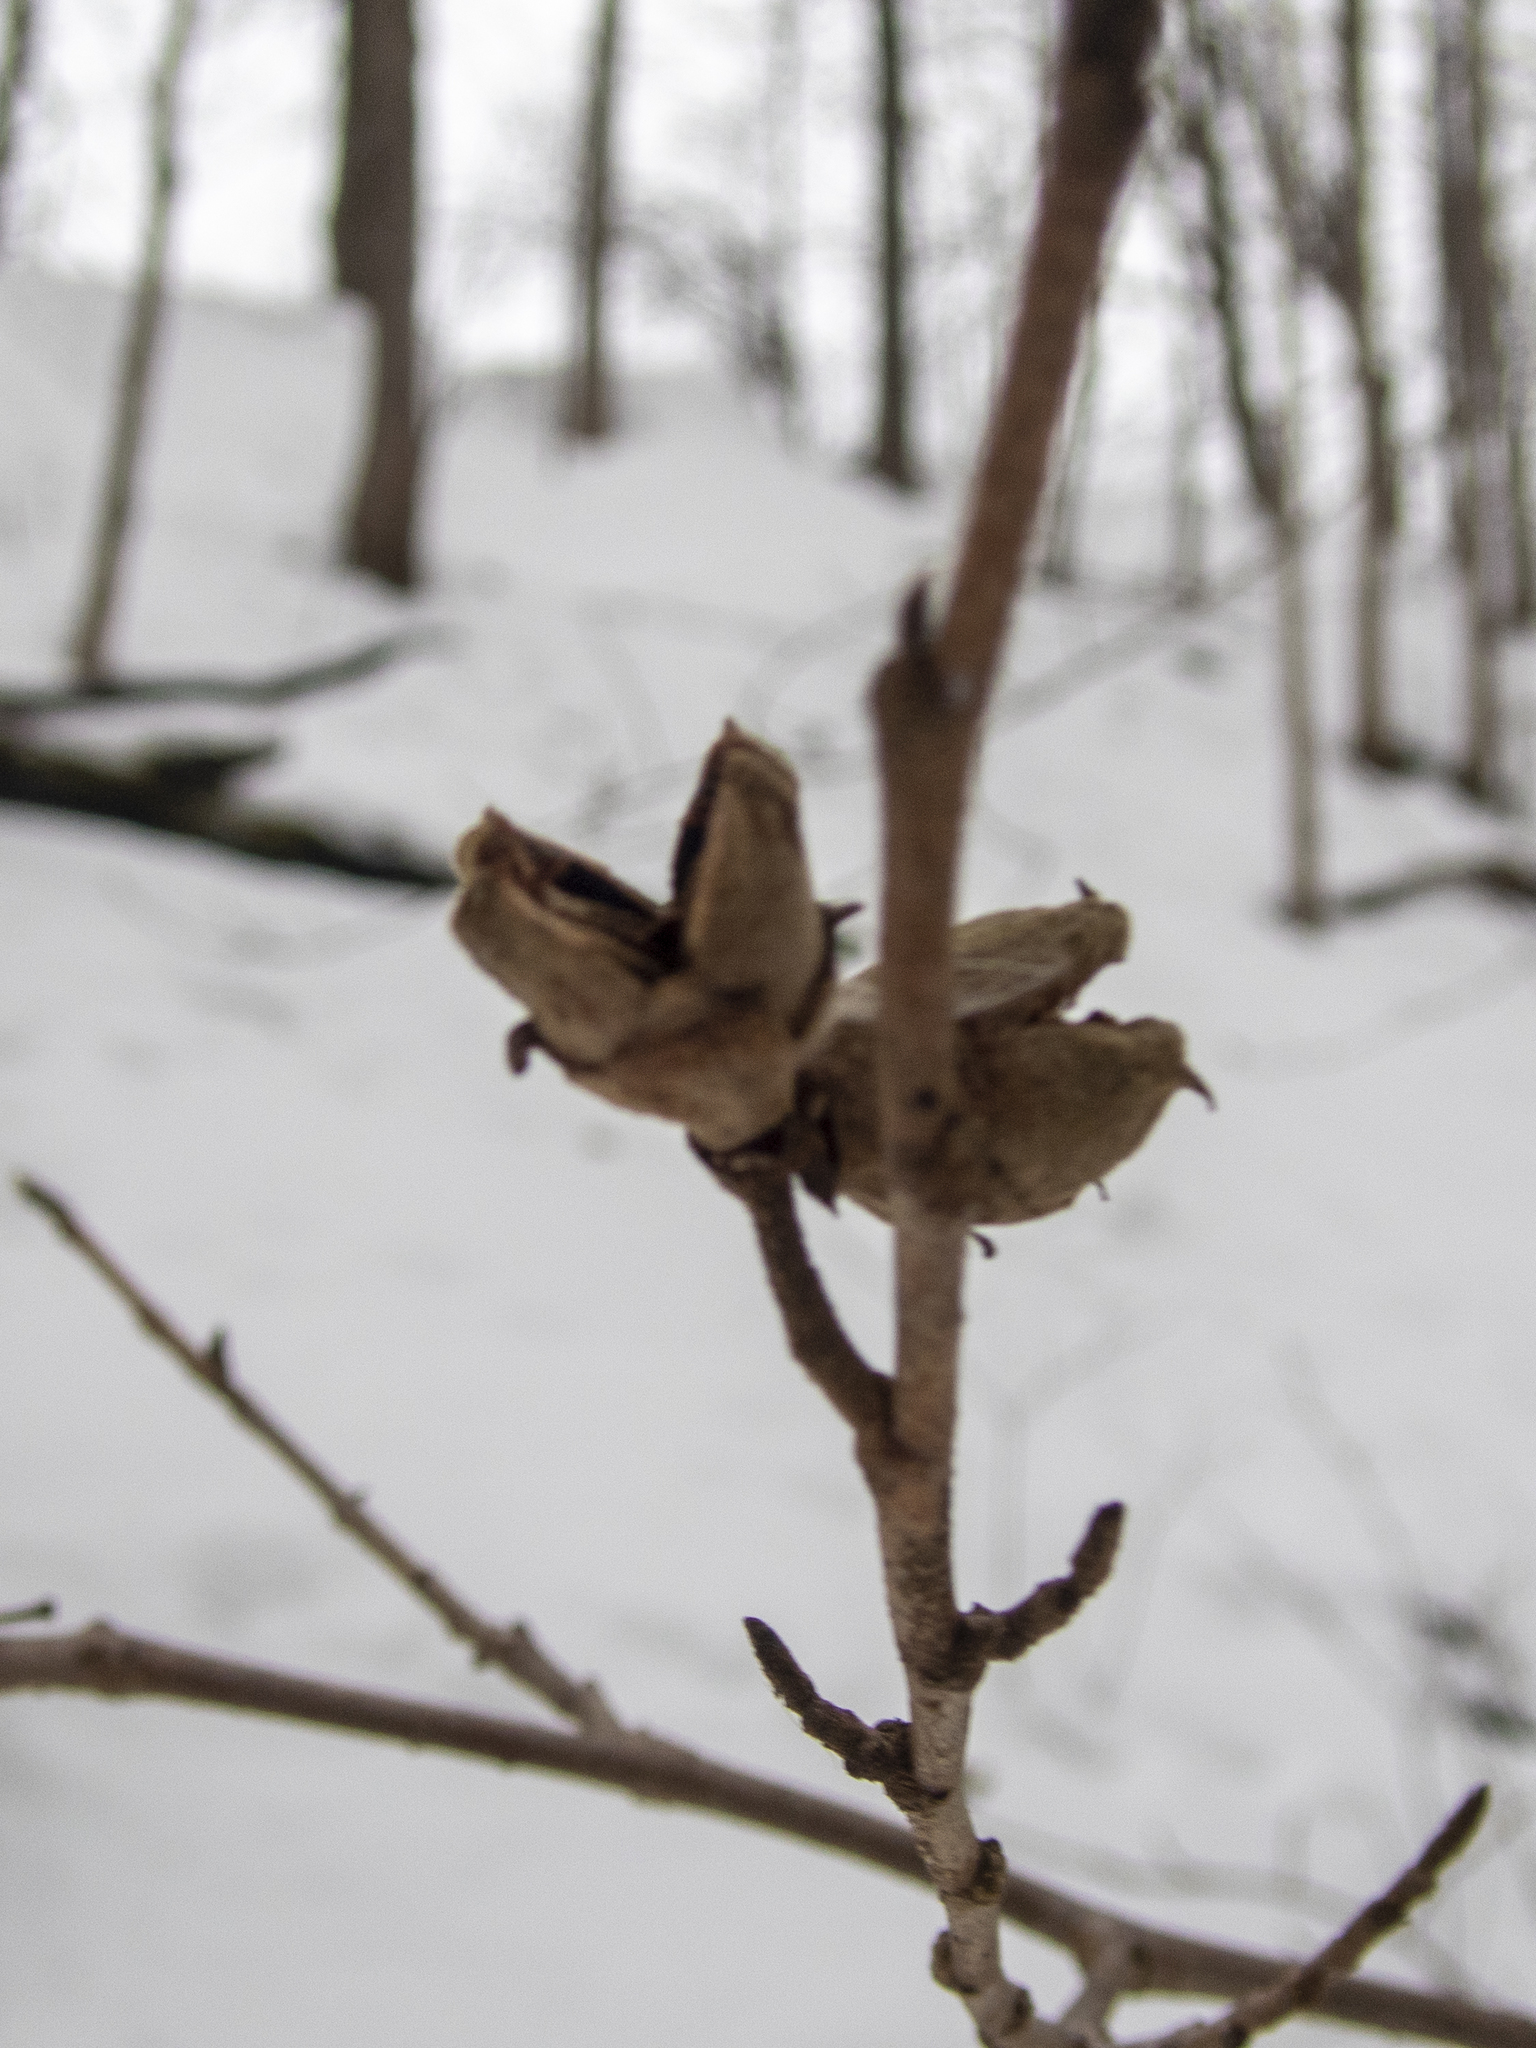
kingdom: Plantae
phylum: Tracheophyta
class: Magnoliopsida
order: Saxifragales
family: Hamamelidaceae
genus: Hamamelis
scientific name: Hamamelis virginiana
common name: Witch-hazel
